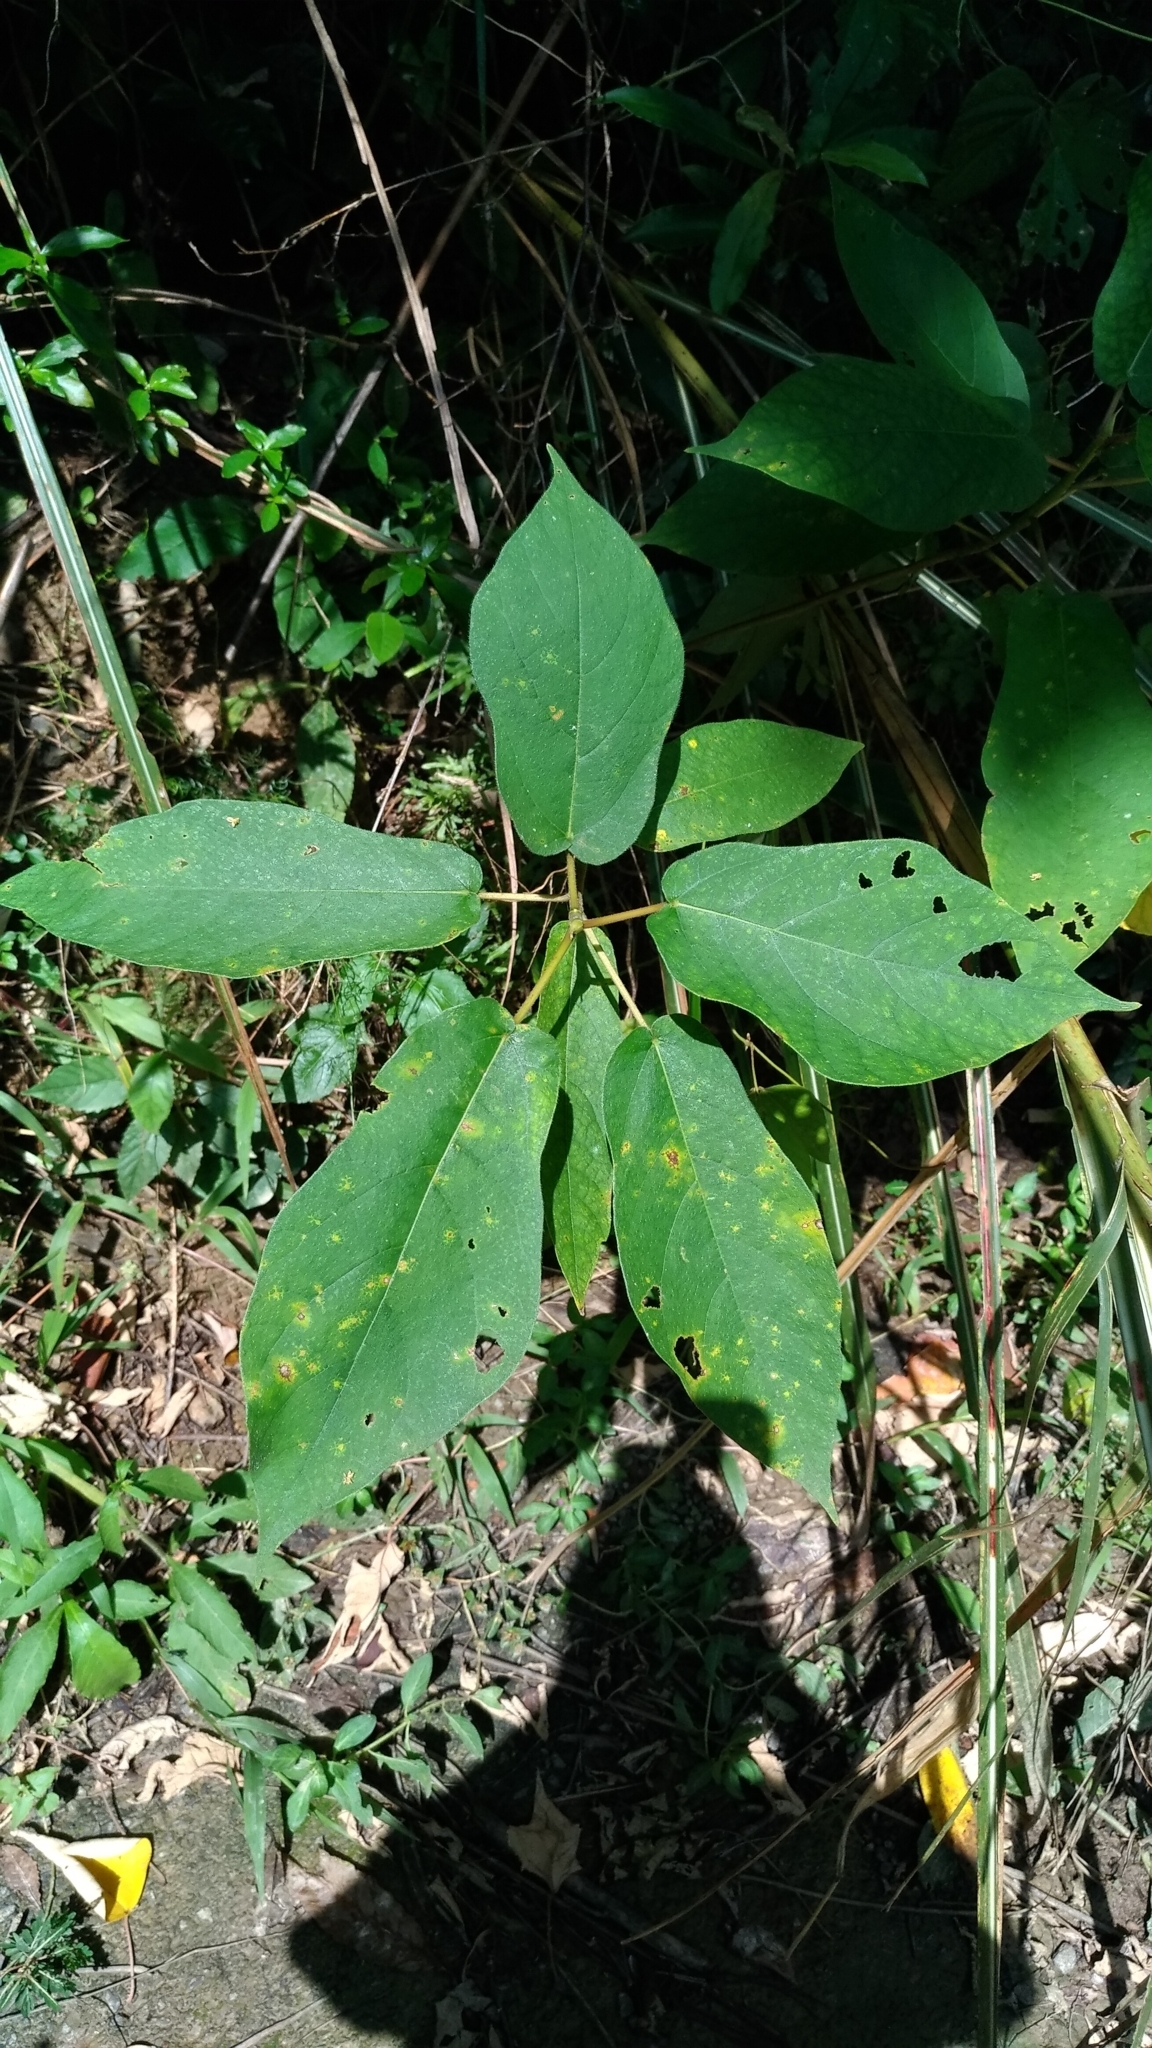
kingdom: Plantae
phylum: Tracheophyta
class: Magnoliopsida
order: Rosales
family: Moraceae
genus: Ficus
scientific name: Ficus erecta
